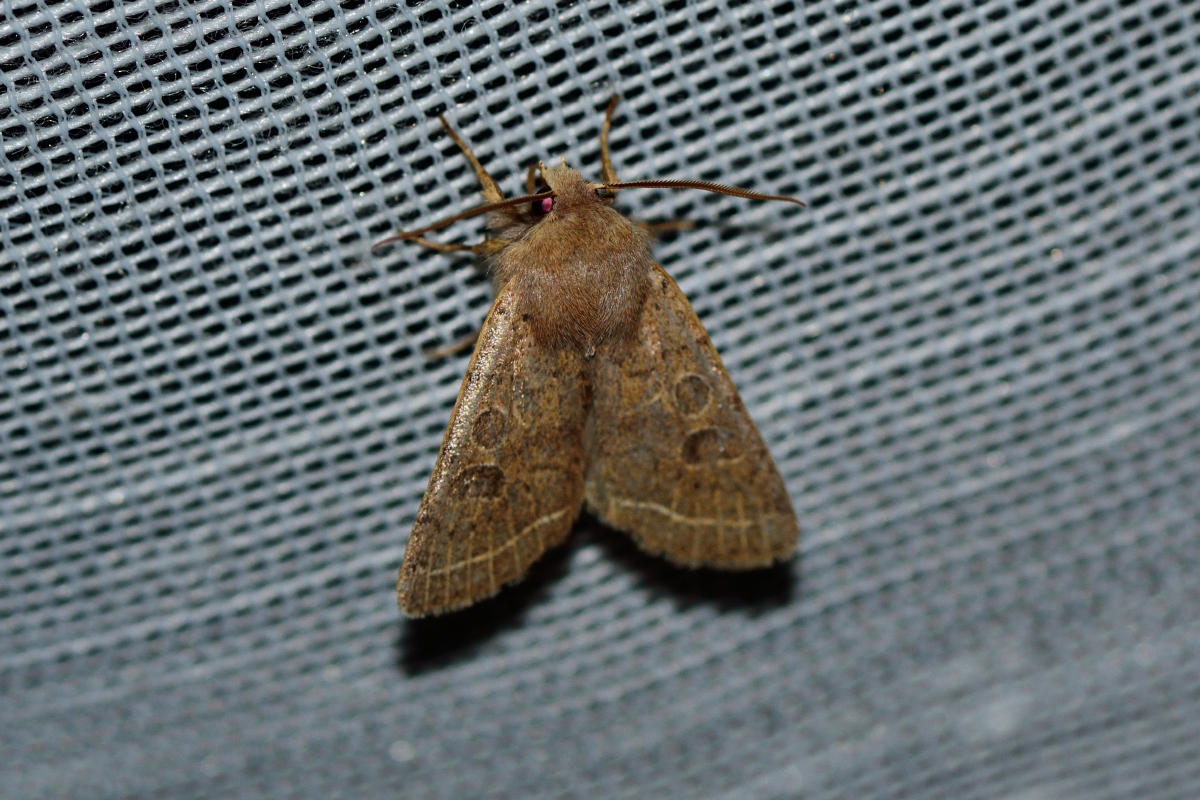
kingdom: Animalia
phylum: Arthropoda
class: Insecta
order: Lepidoptera
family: Noctuidae
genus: Orthosia
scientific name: Orthosia cerasi
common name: Common quaker
